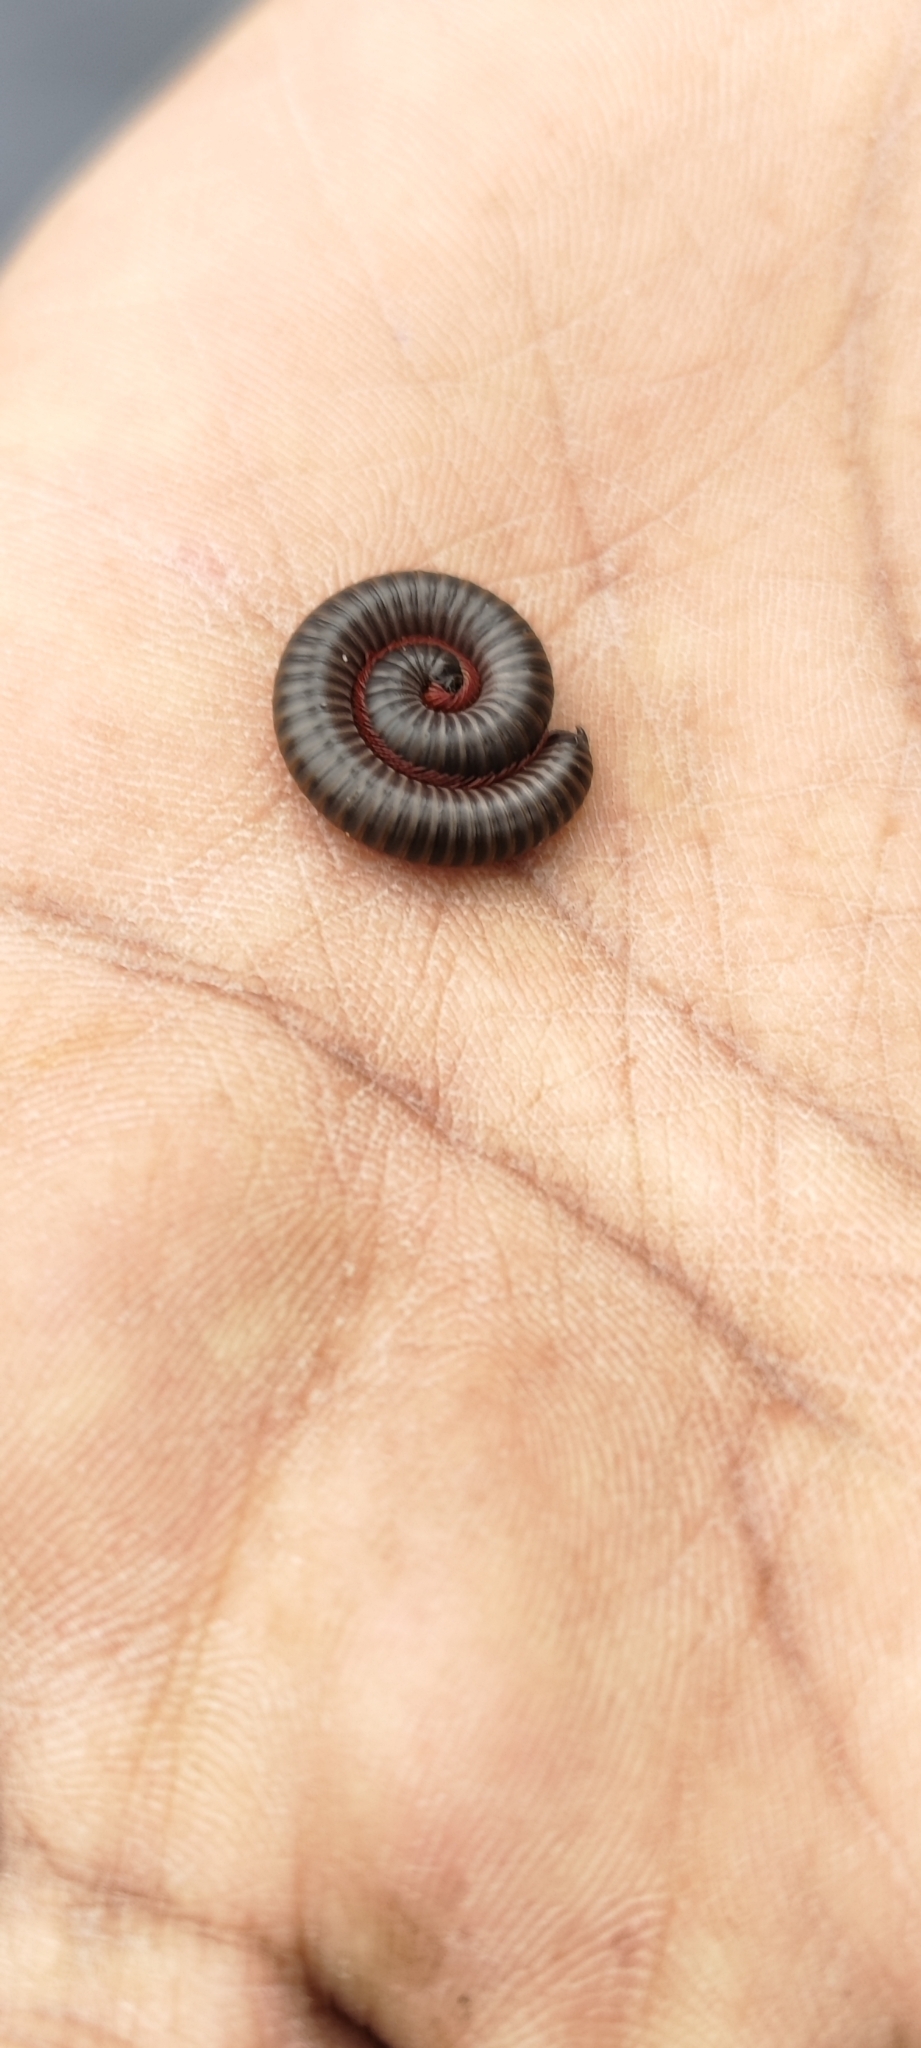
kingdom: Animalia
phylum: Arthropoda
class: Diplopoda
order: Spirostreptida
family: Harpagophoridae
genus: Phyllogonostreptus
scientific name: Phyllogonostreptus nigrolabiatus
